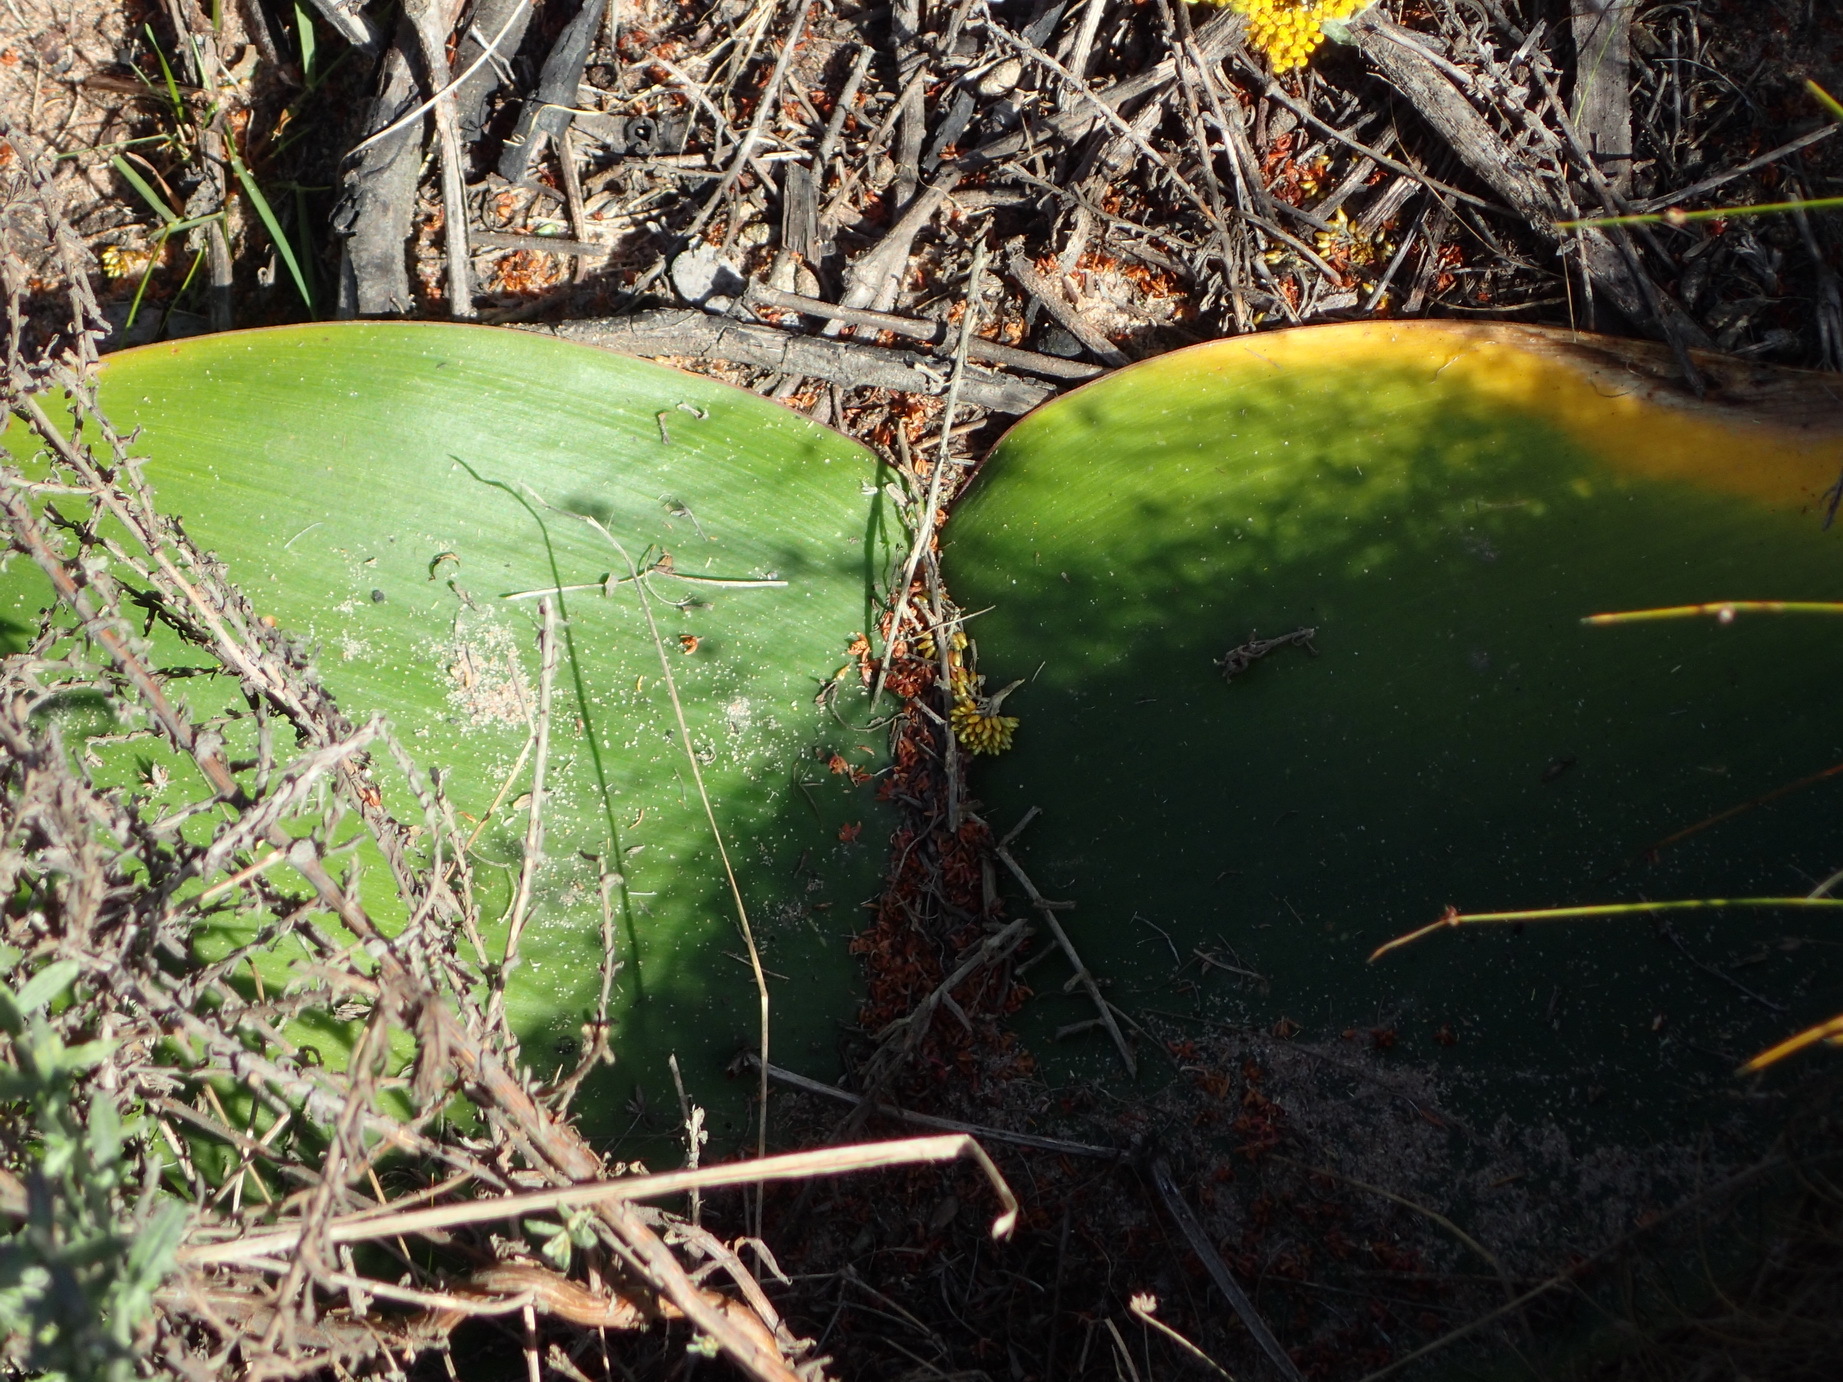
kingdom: Plantae
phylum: Tracheophyta
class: Liliopsida
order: Asparagales
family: Amaryllidaceae
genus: Haemanthus
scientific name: Haemanthus sanguineus
